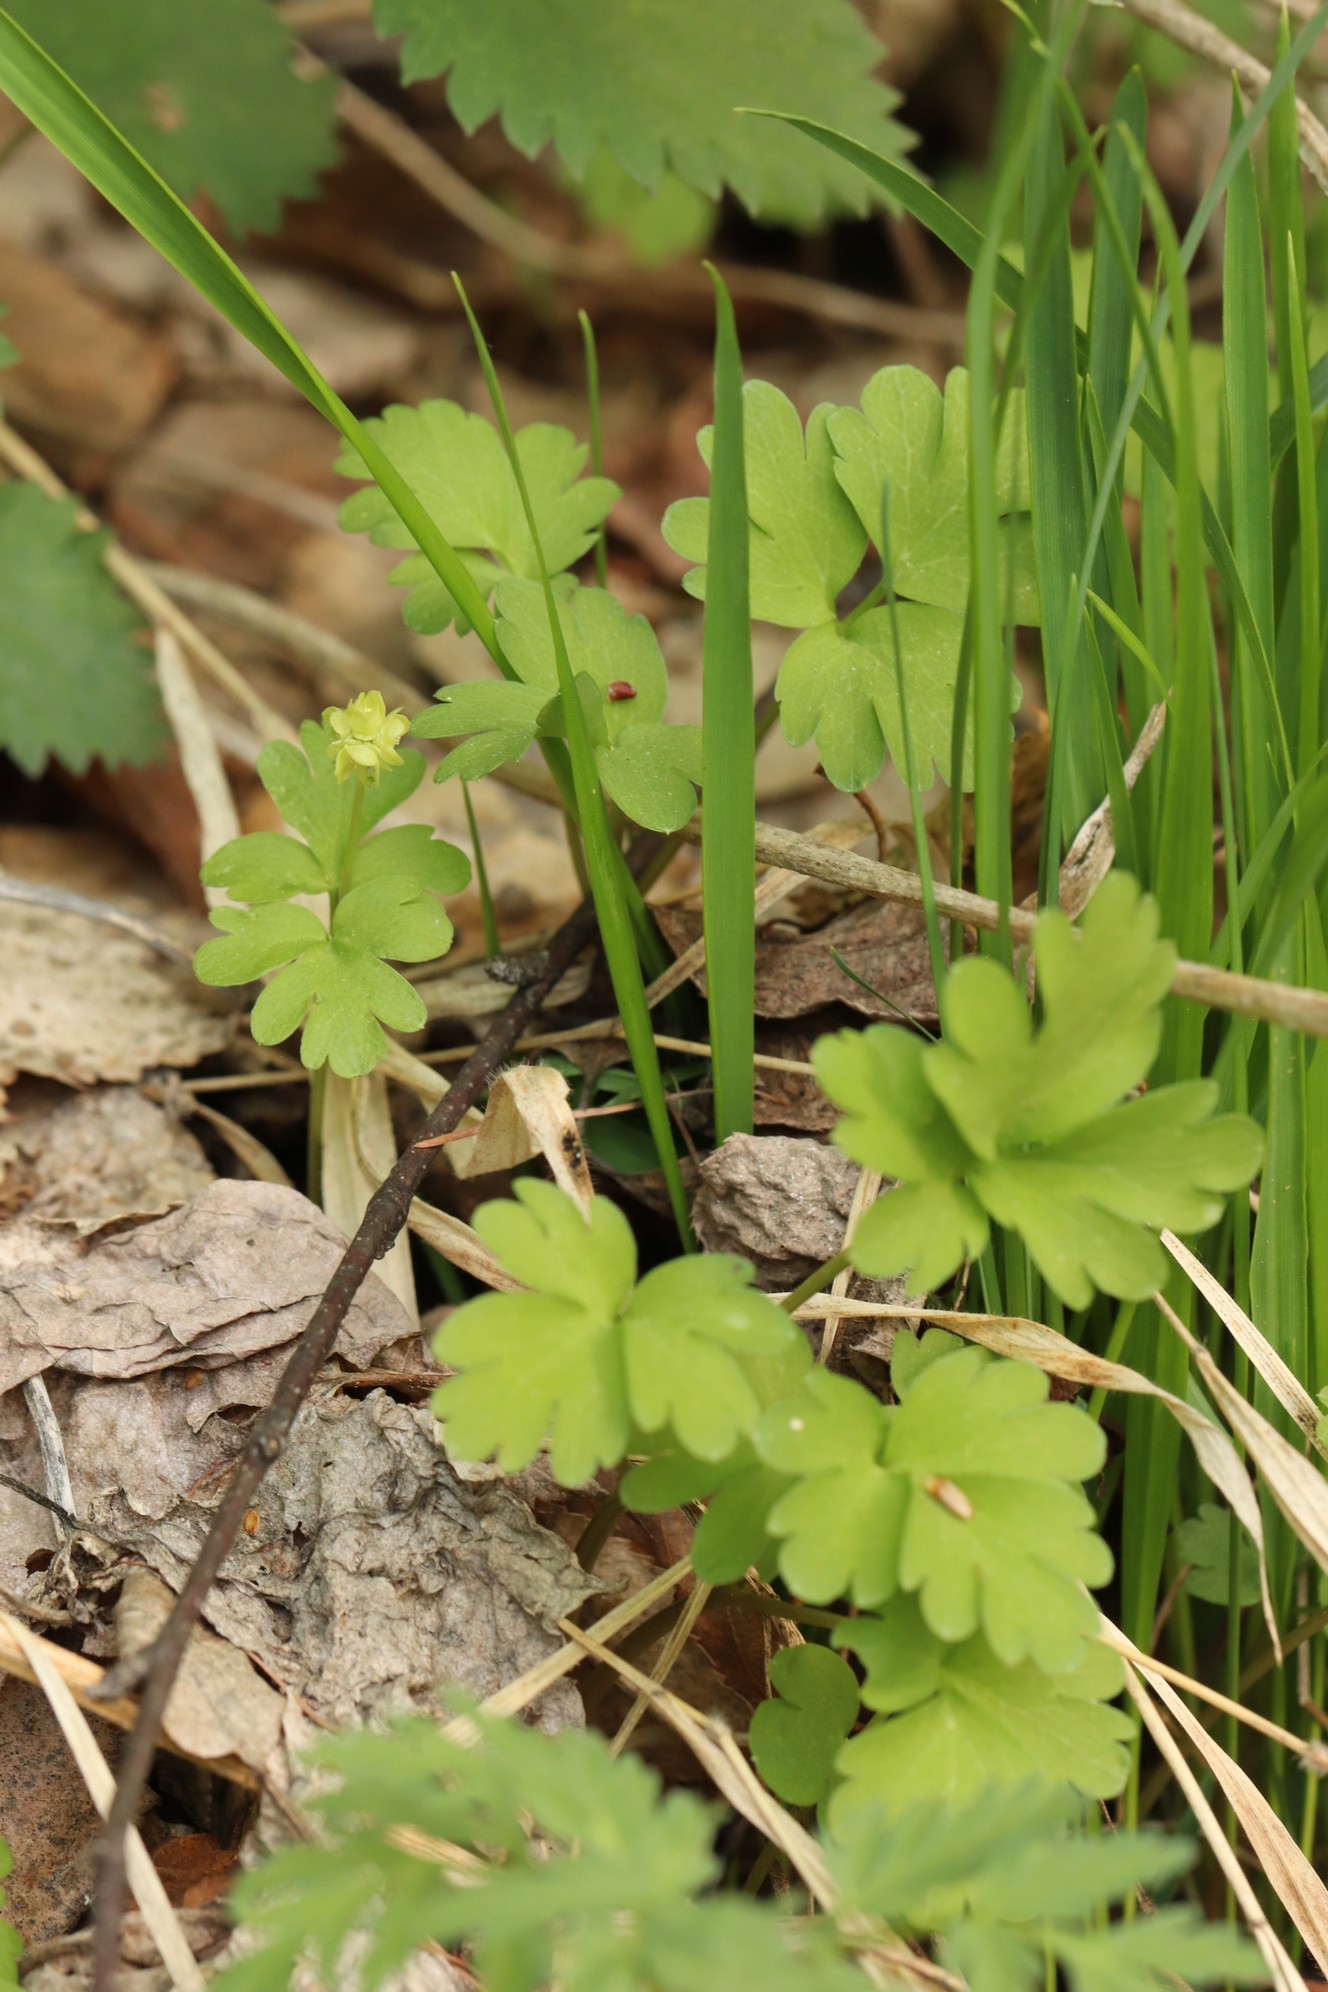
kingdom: Plantae
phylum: Tracheophyta
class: Magnoliopsida
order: Dipsacales
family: Viburnaceae
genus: Adoxa
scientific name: Adoxa moschatellina
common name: Moschatel
